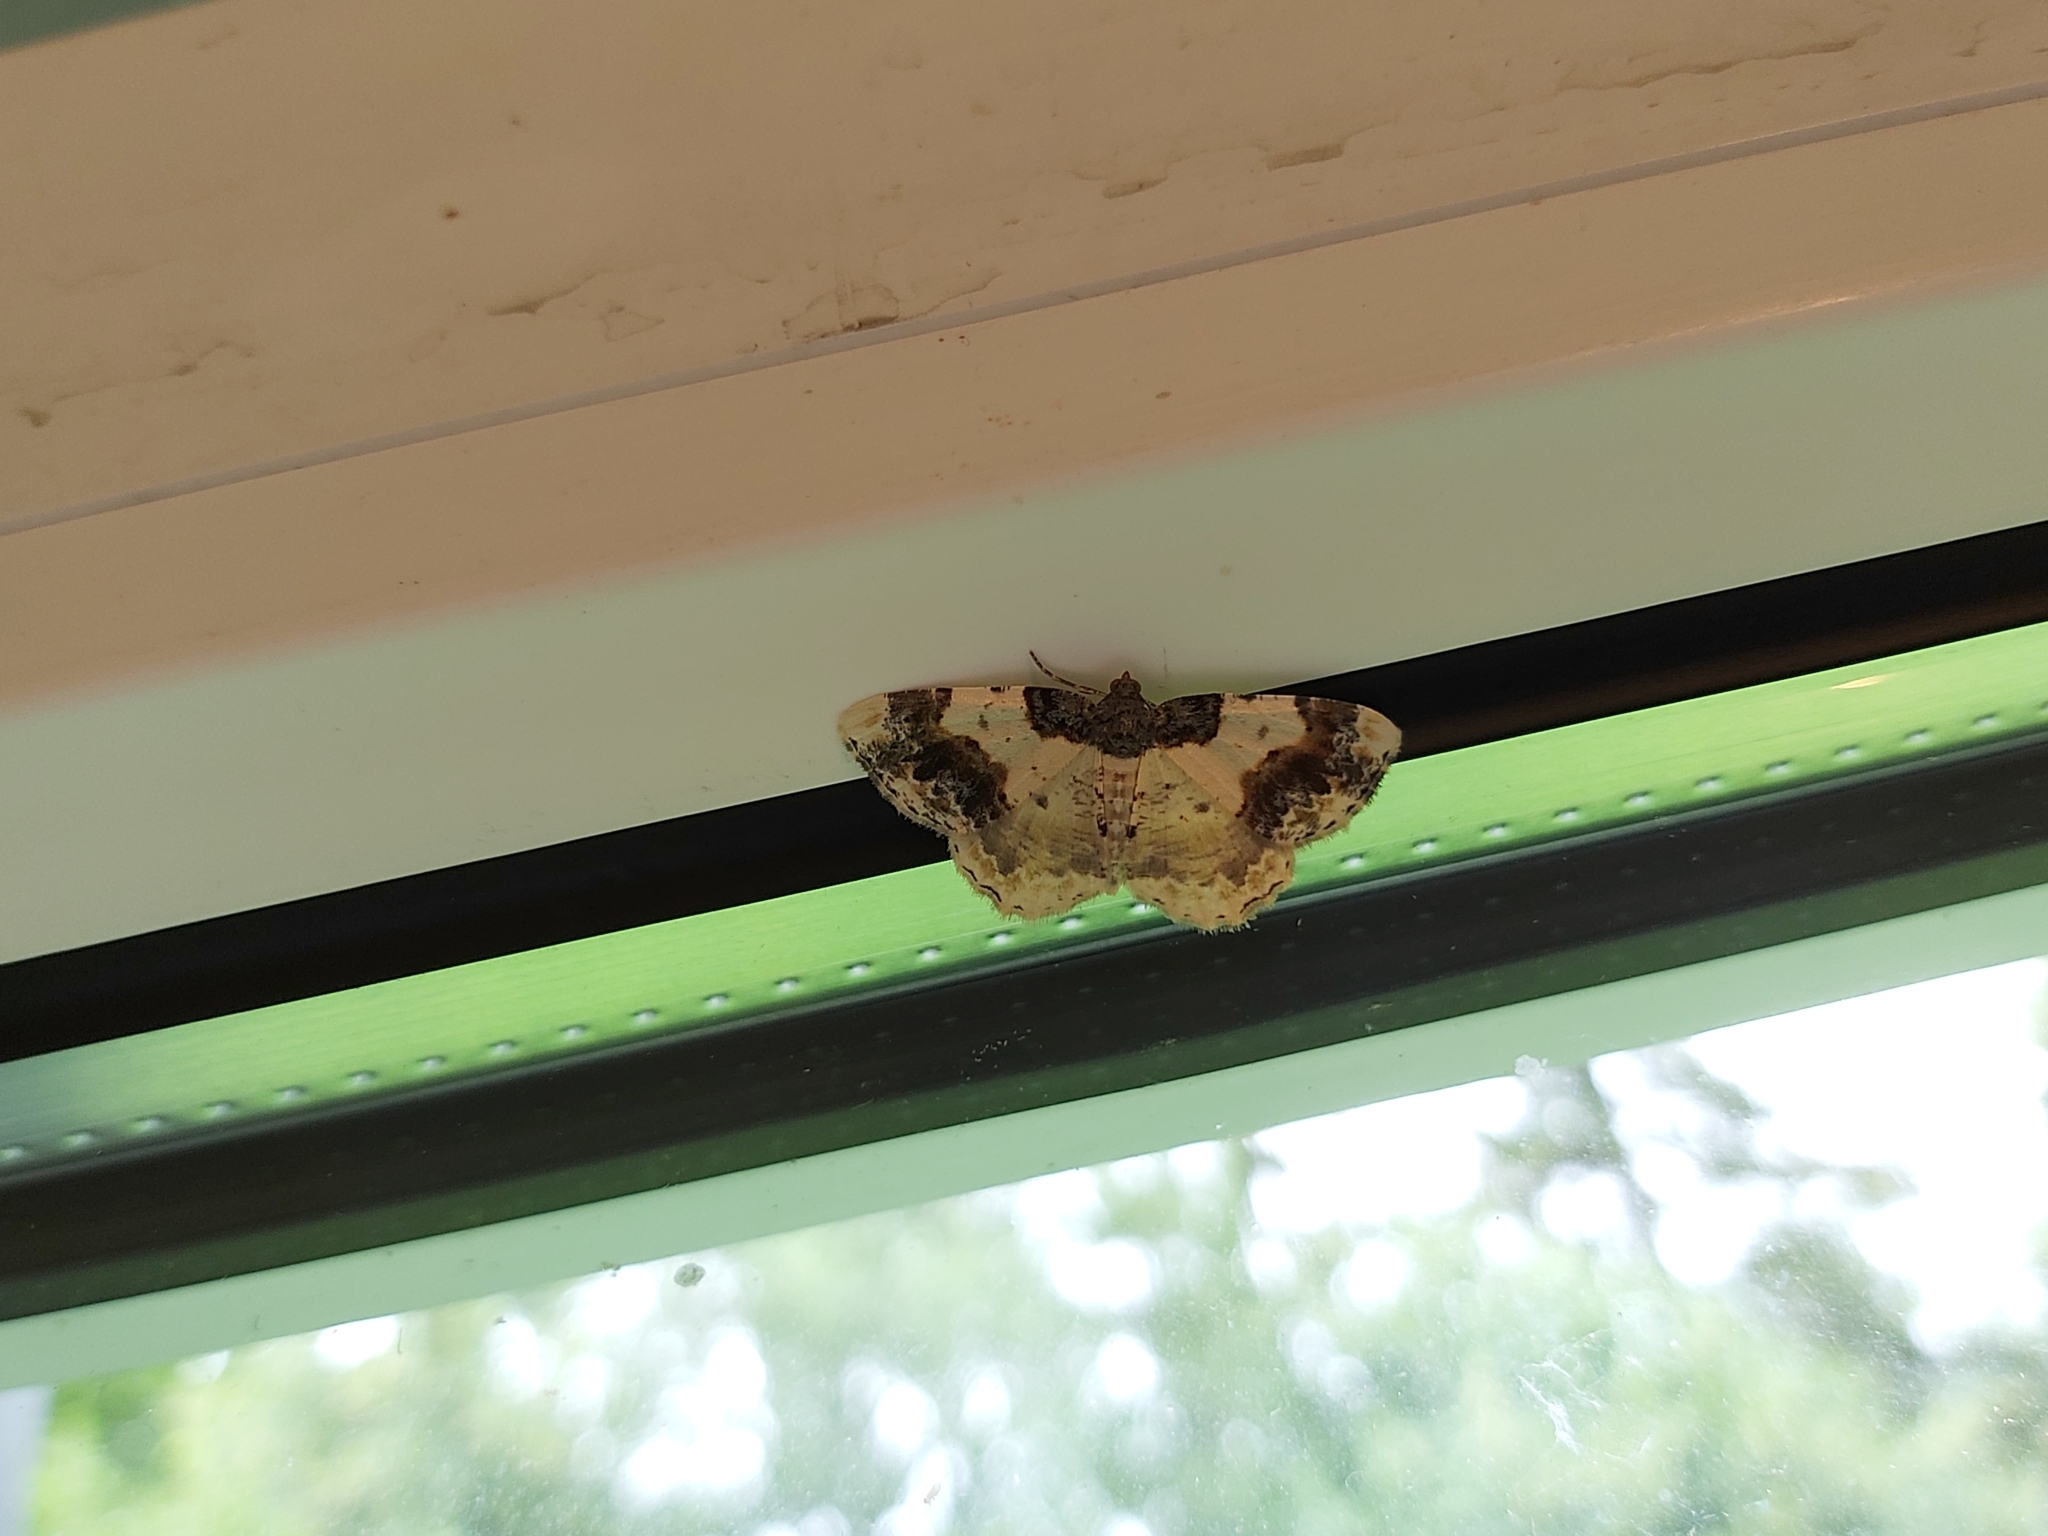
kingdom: Animalia
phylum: Arthropoda
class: Insecta
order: Lepidoptera
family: Geometridae
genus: Ligdia
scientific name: Ligdia adustata
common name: Scorched carpet
